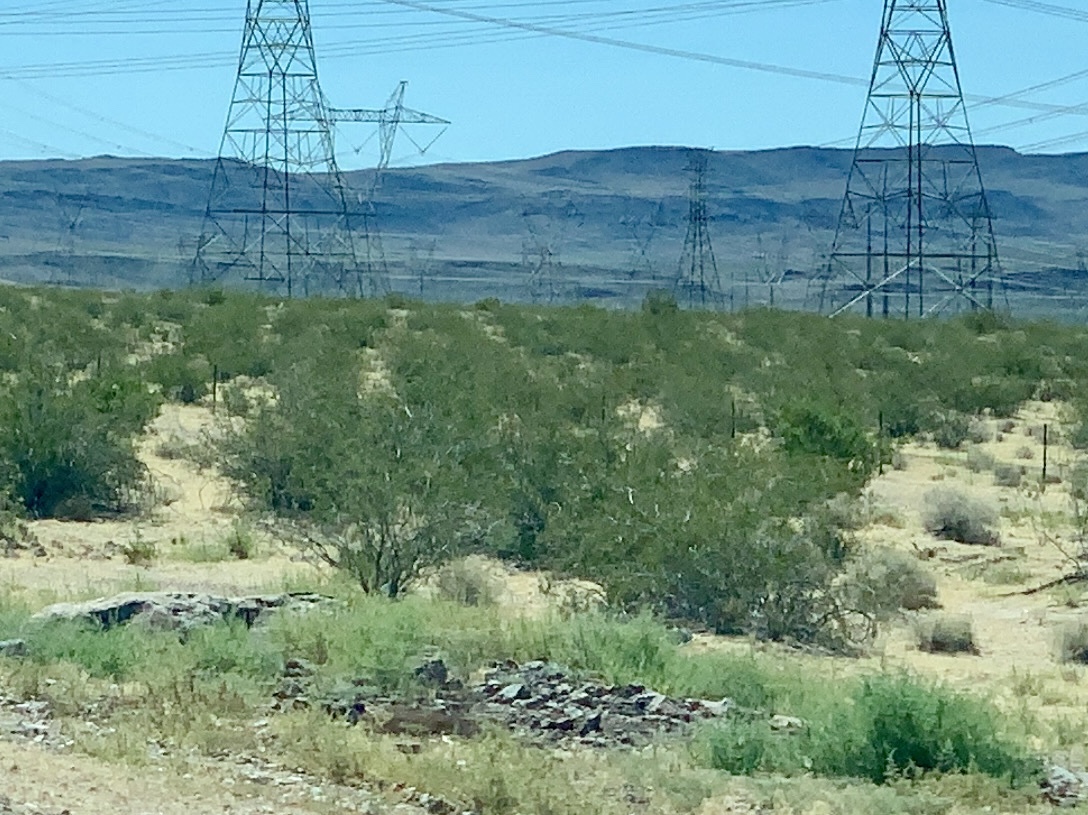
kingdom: Plantae
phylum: Tracheophyta
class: Magnoliopsida
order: Zygophyllales
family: Zygophyllaceae
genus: Larrea
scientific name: Larrea tridentata
